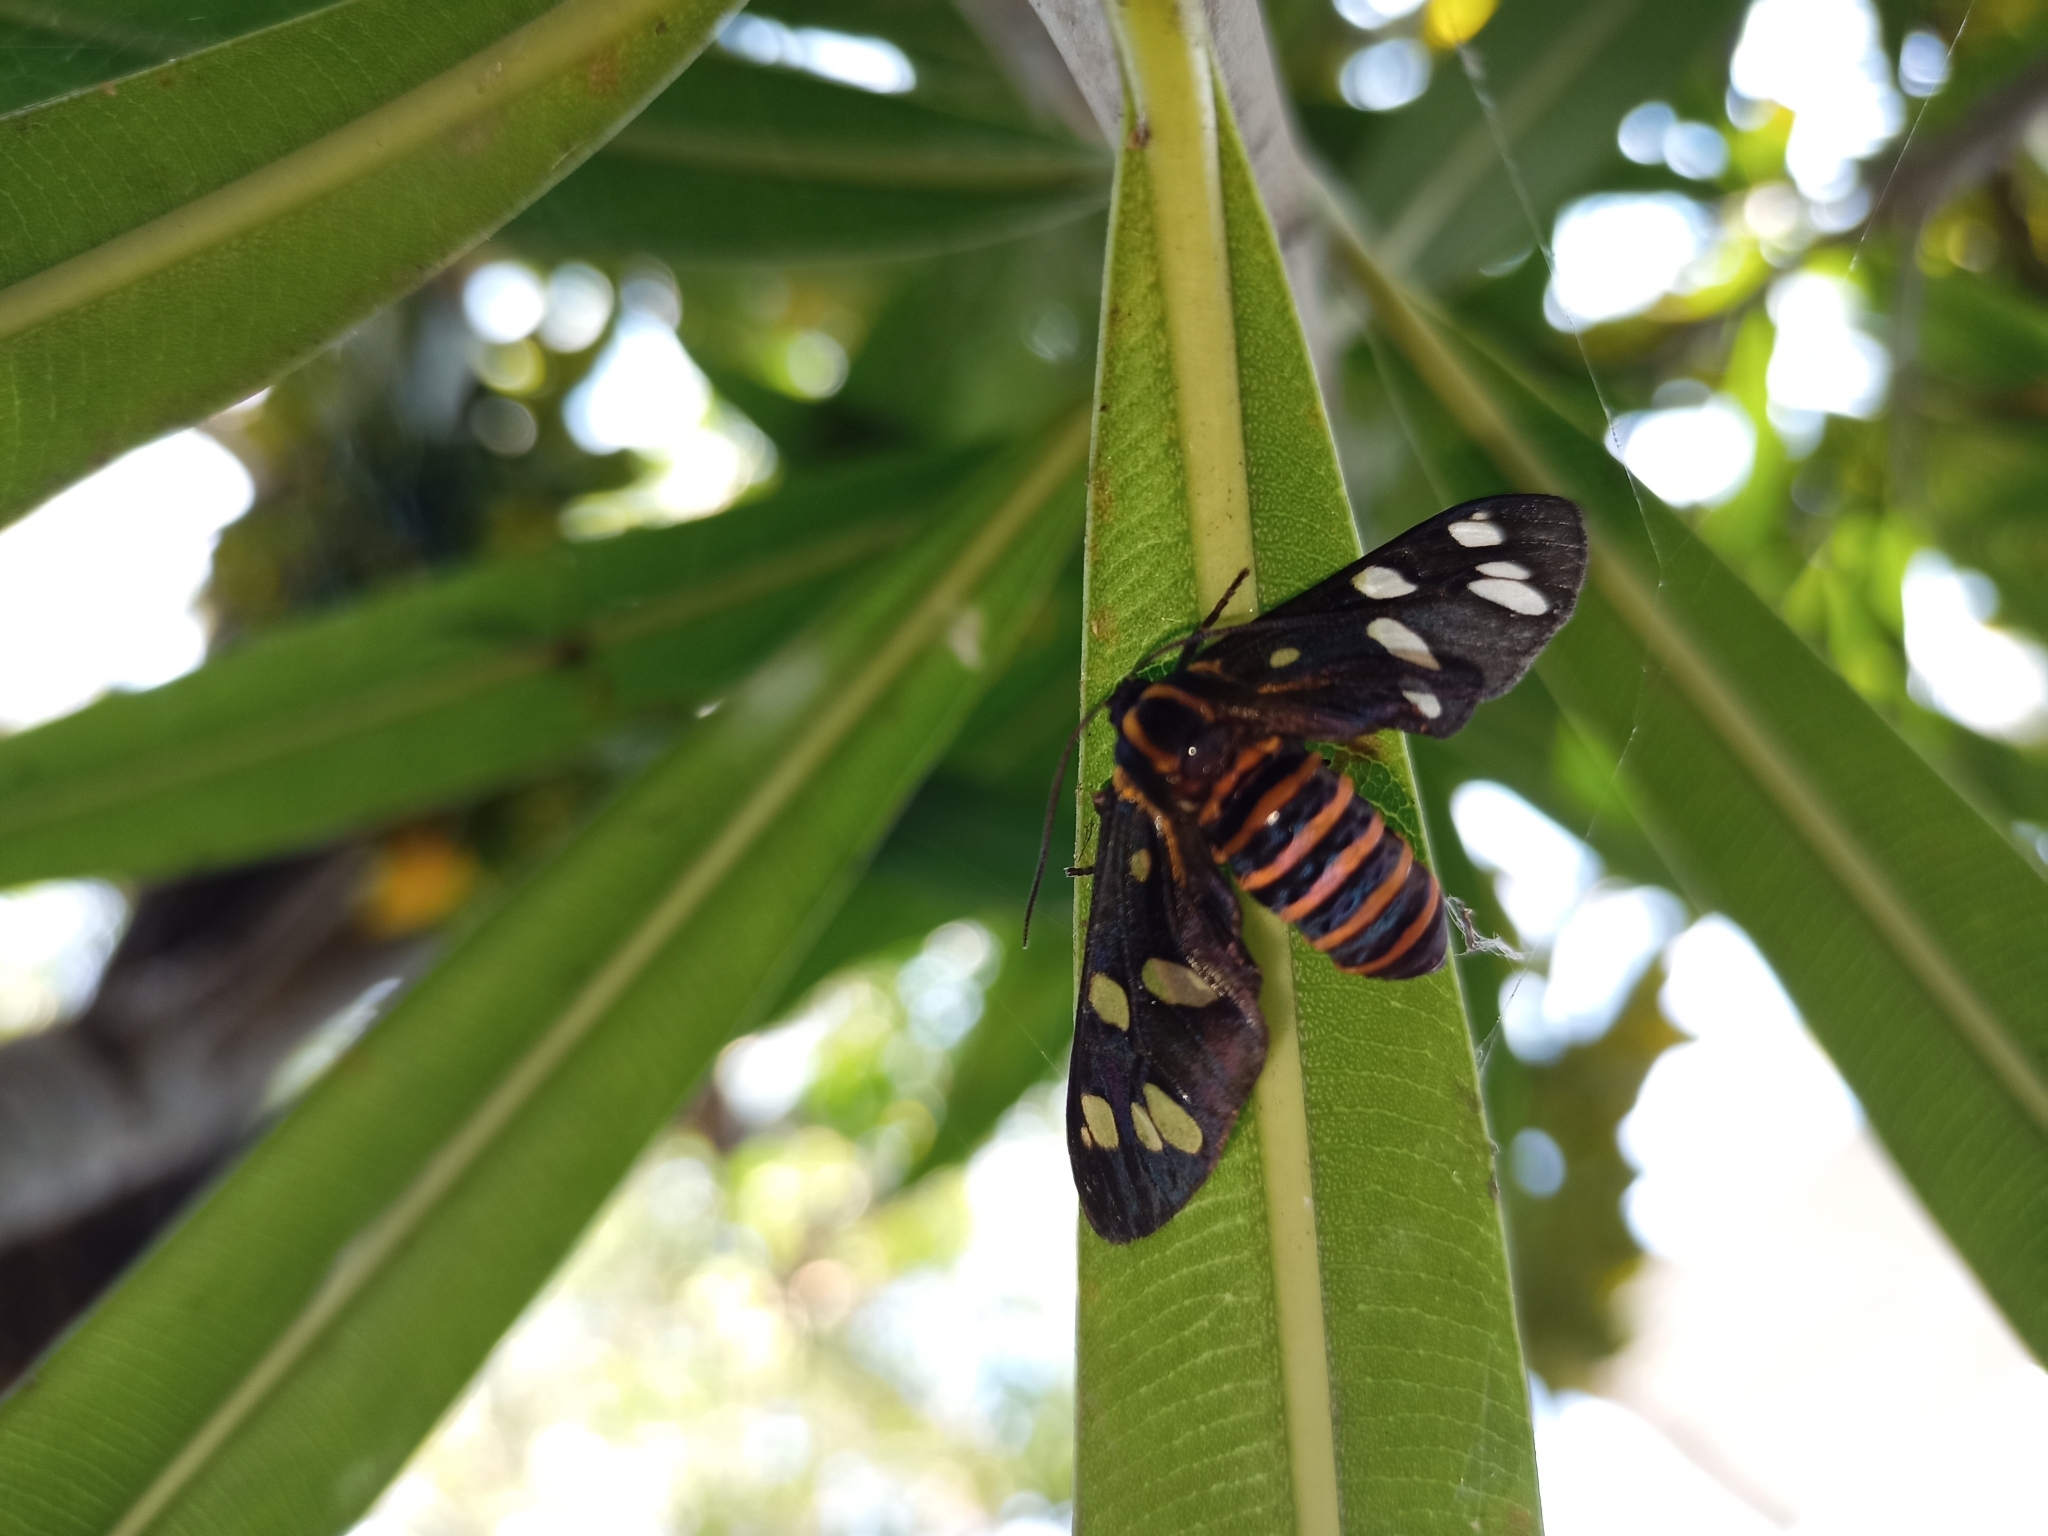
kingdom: Animalia
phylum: Arthropoda
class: Insecta
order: Lepidoptera
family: Erebidae
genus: Amata
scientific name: Amata passalis
